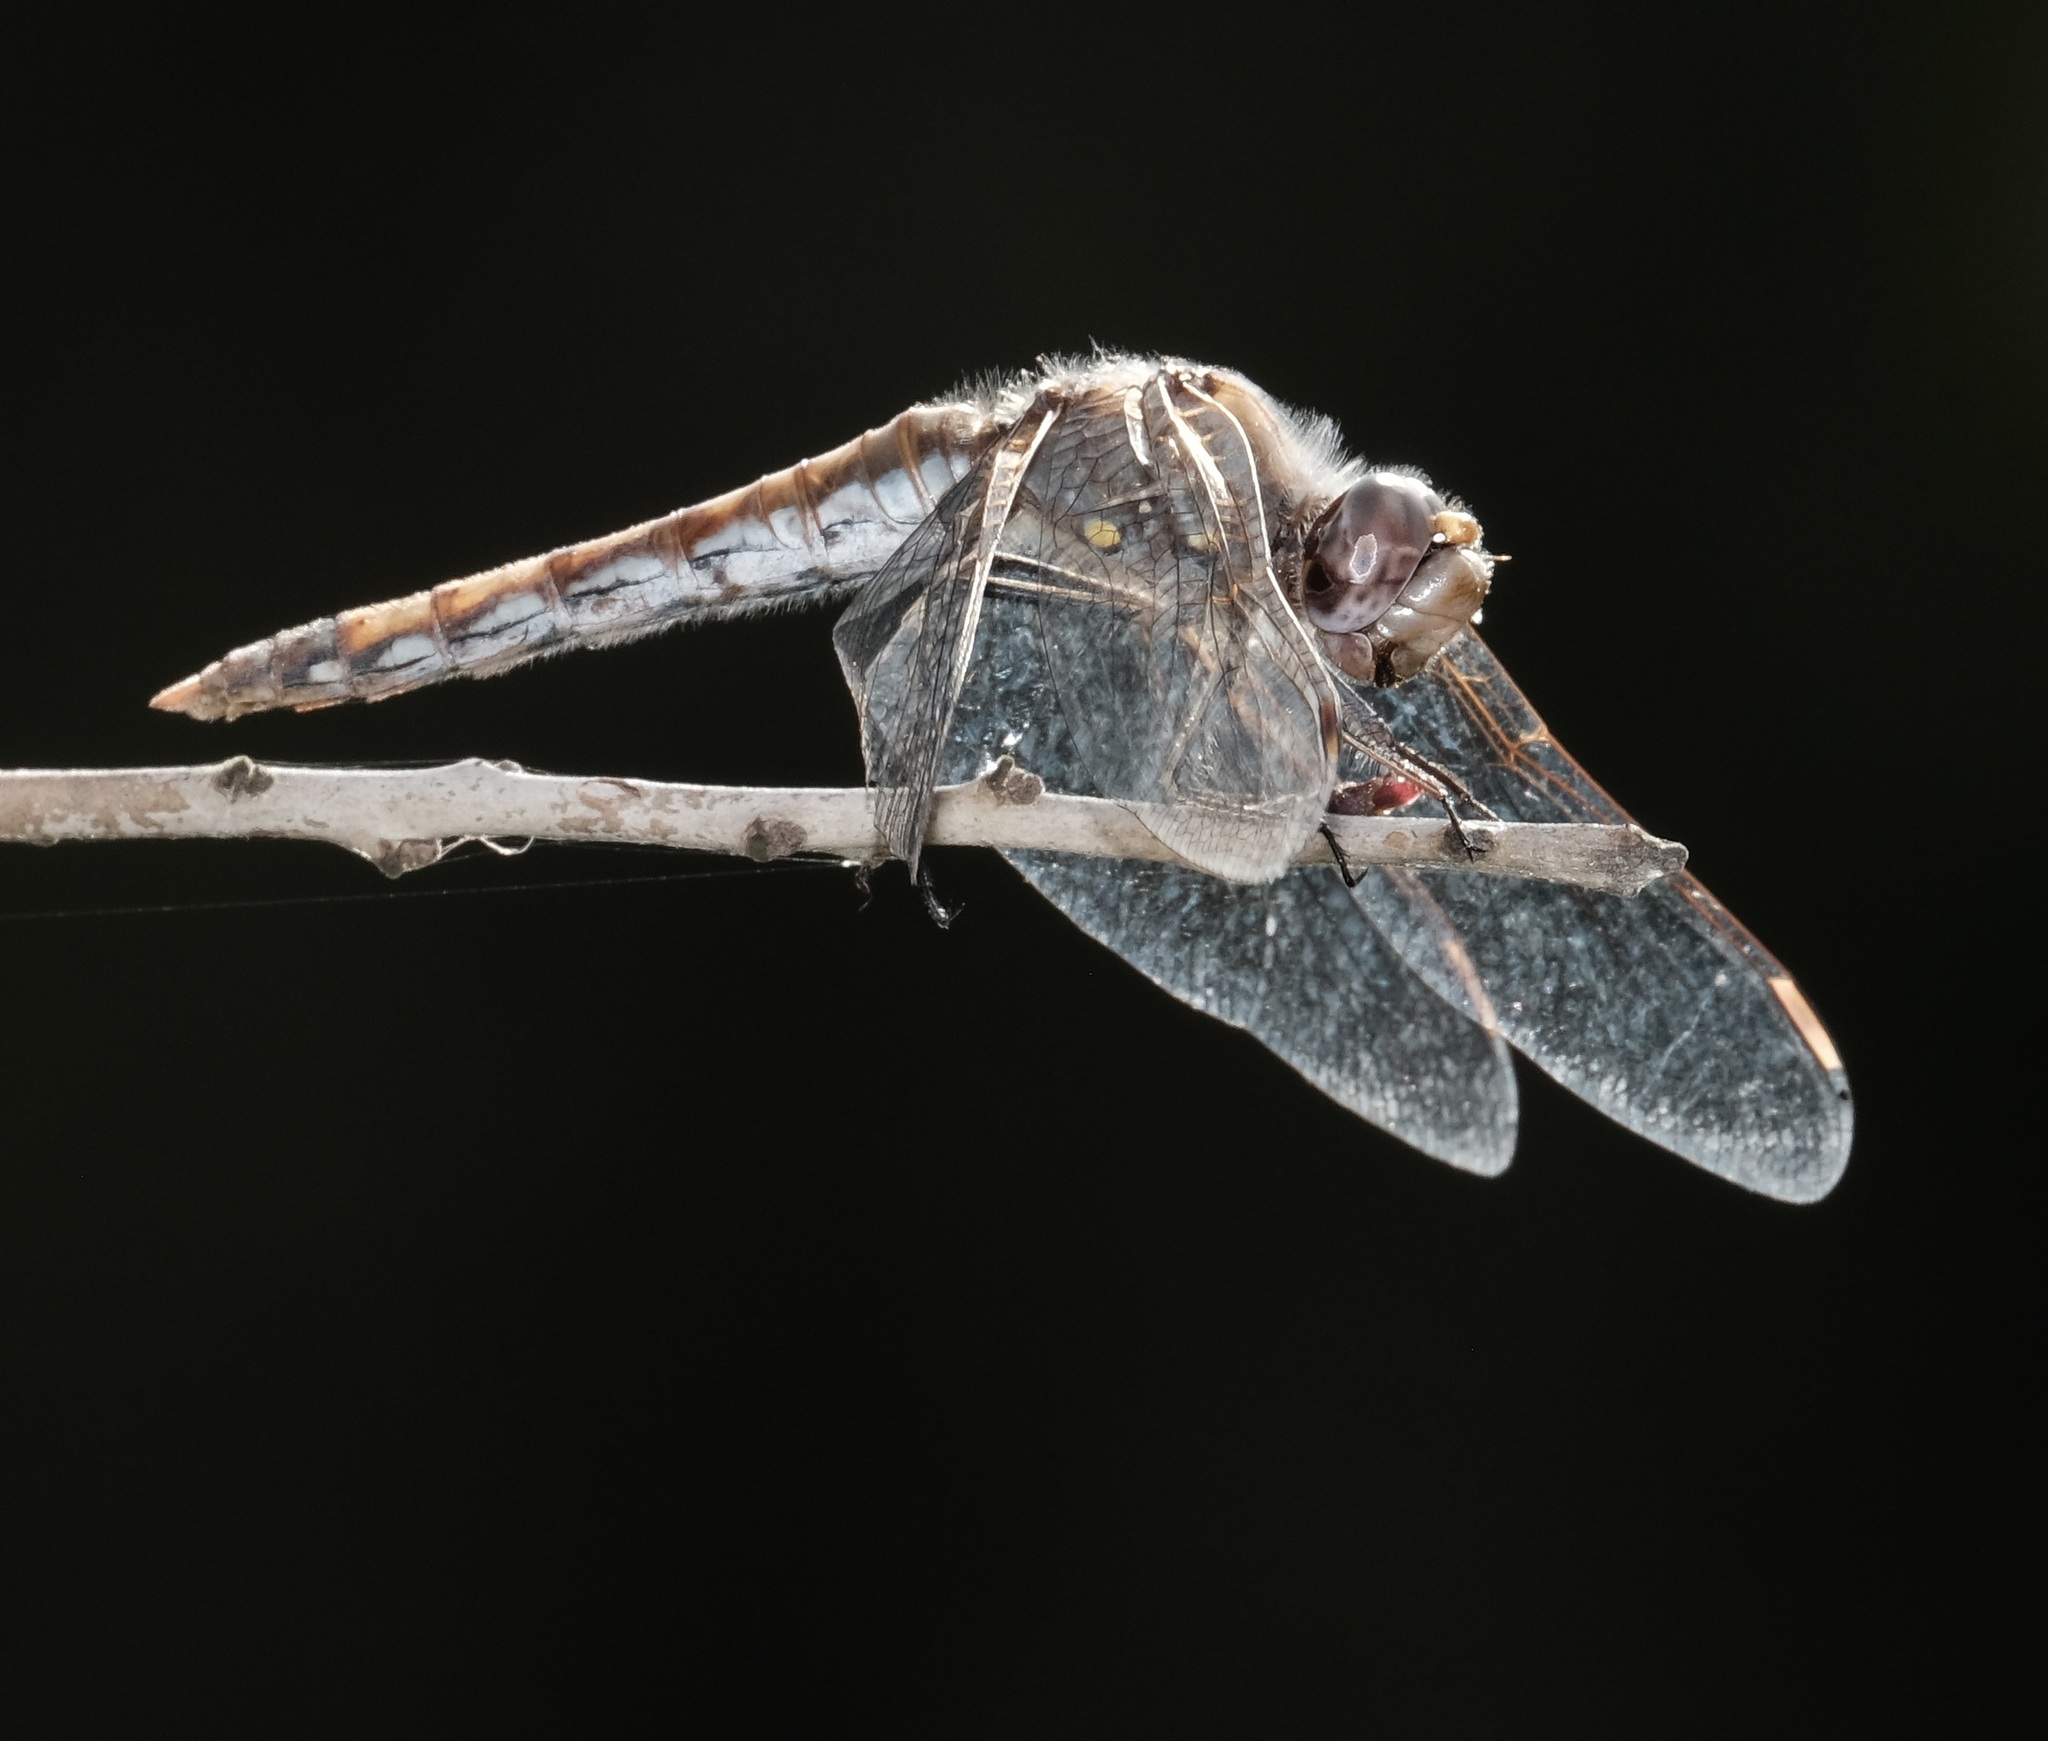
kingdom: Animalia
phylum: Arthropoda
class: Insecta
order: Odonata
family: Libellulidae
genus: Sympetrum
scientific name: Sympetrum corruptum
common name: Variegated meadowhawk
